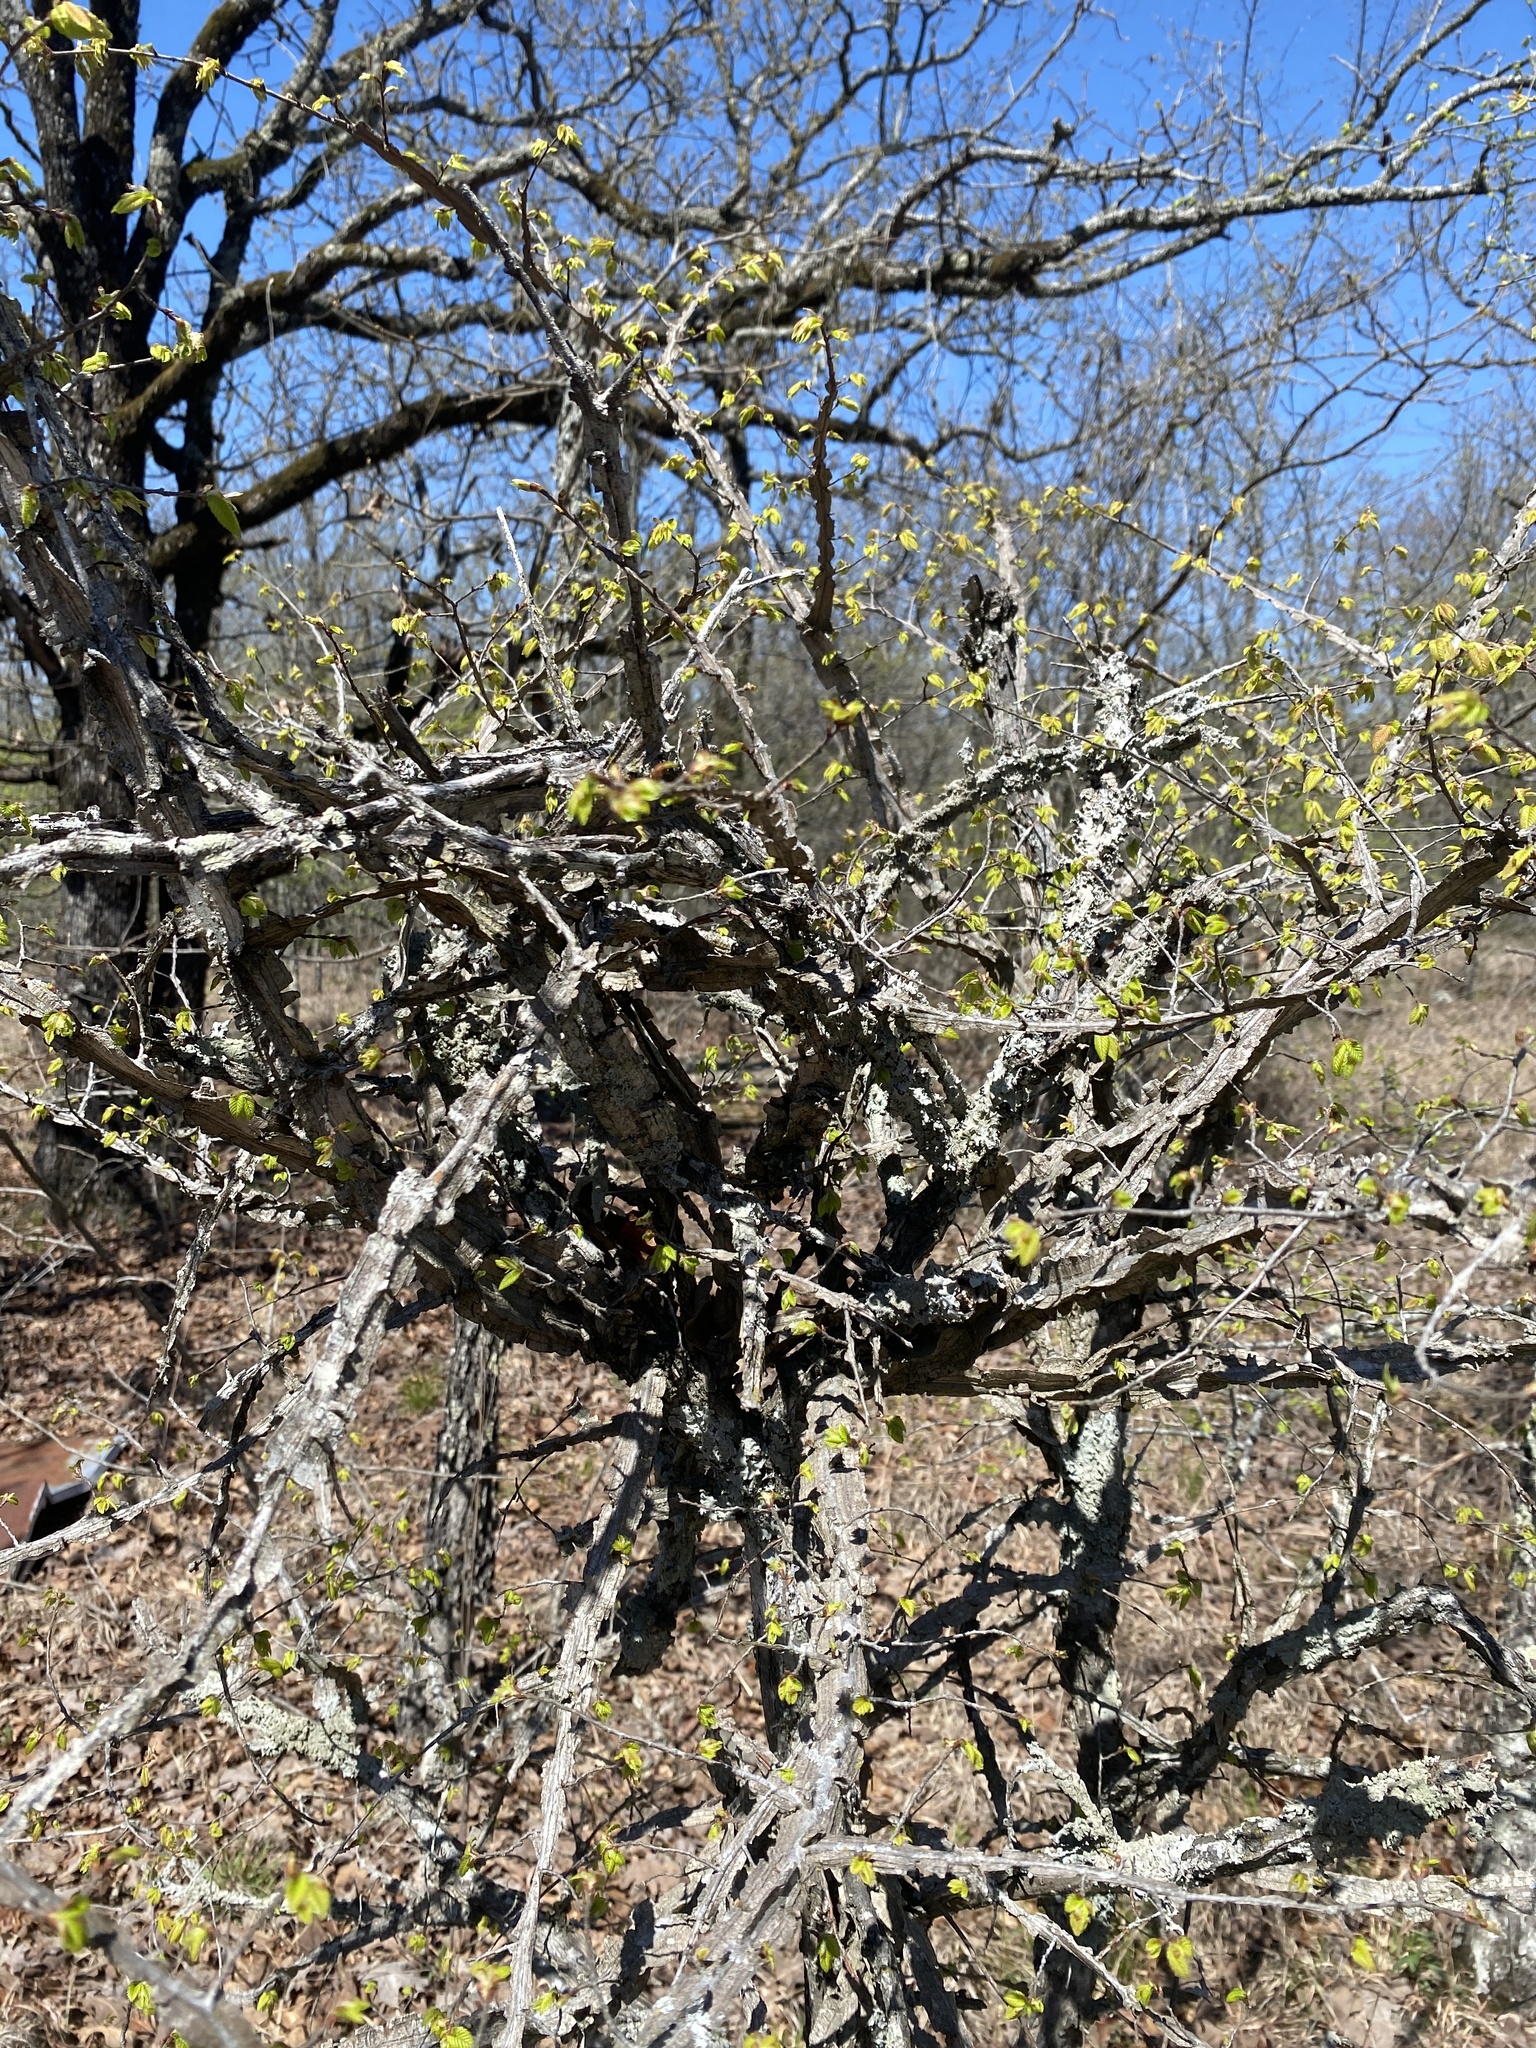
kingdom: Plantae
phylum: Tracheophyta
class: Magnoliopsida
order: Rosales
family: Ulmaceae
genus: Ulmus
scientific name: Ulmus alata
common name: Winged elm
